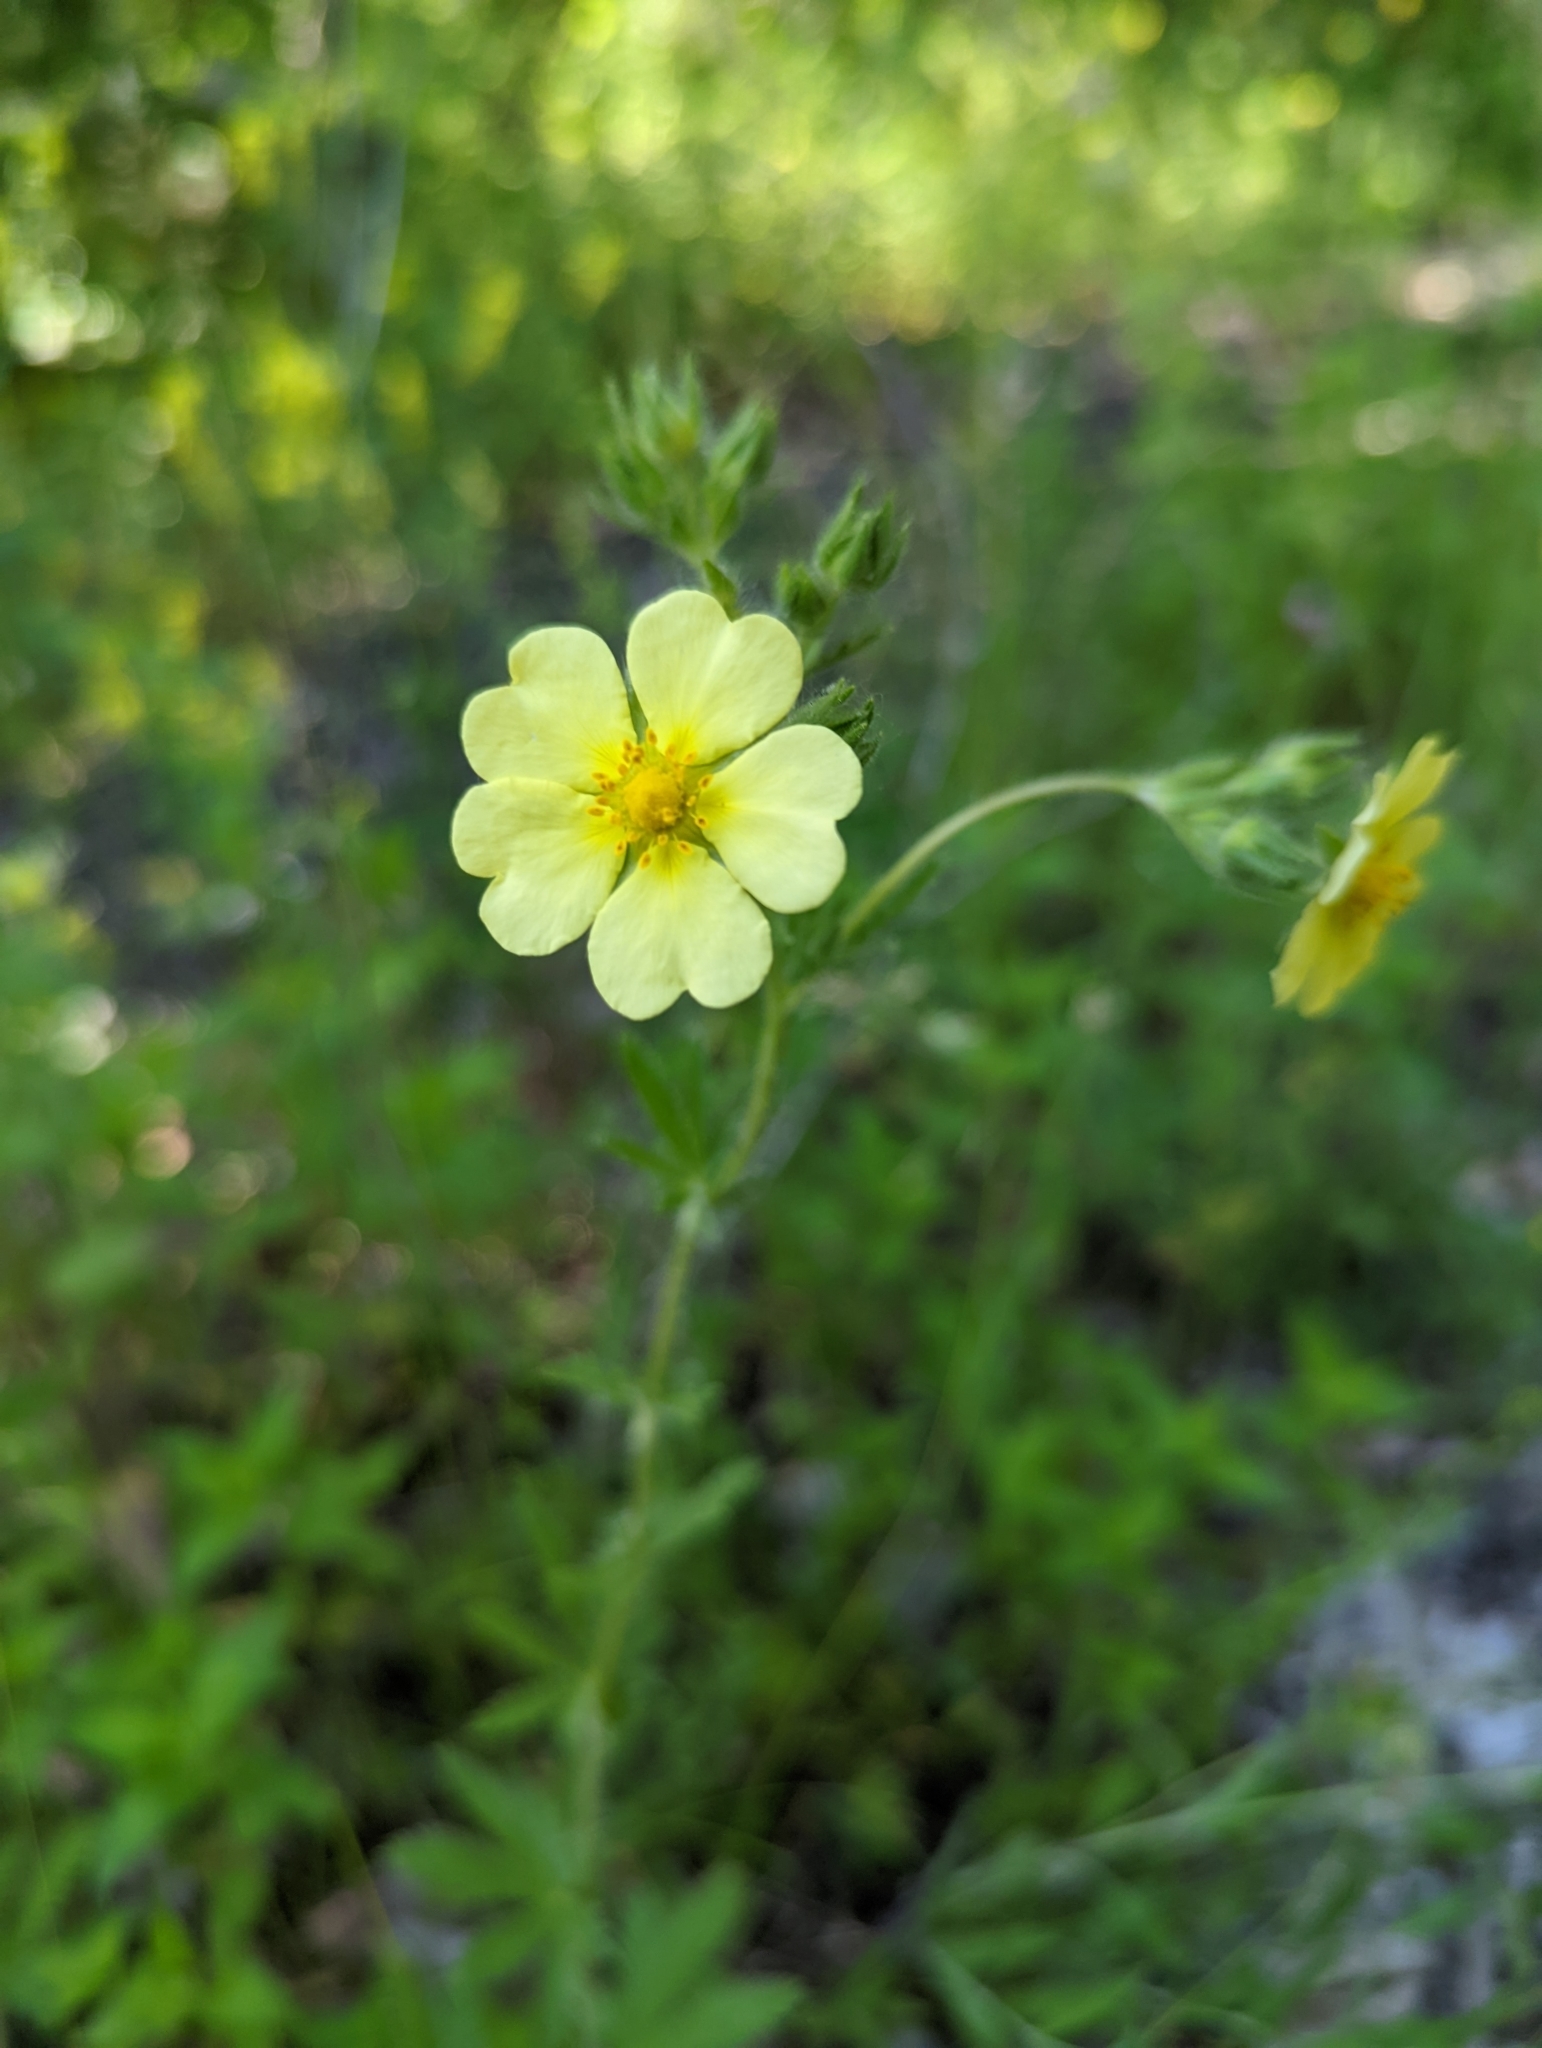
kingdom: Plantae
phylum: Tracheophyta
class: Magnoliopsida
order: Rosales
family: Rosaceae
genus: Potentilla
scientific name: Potentilla recta
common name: Sulphur cinquefoil
